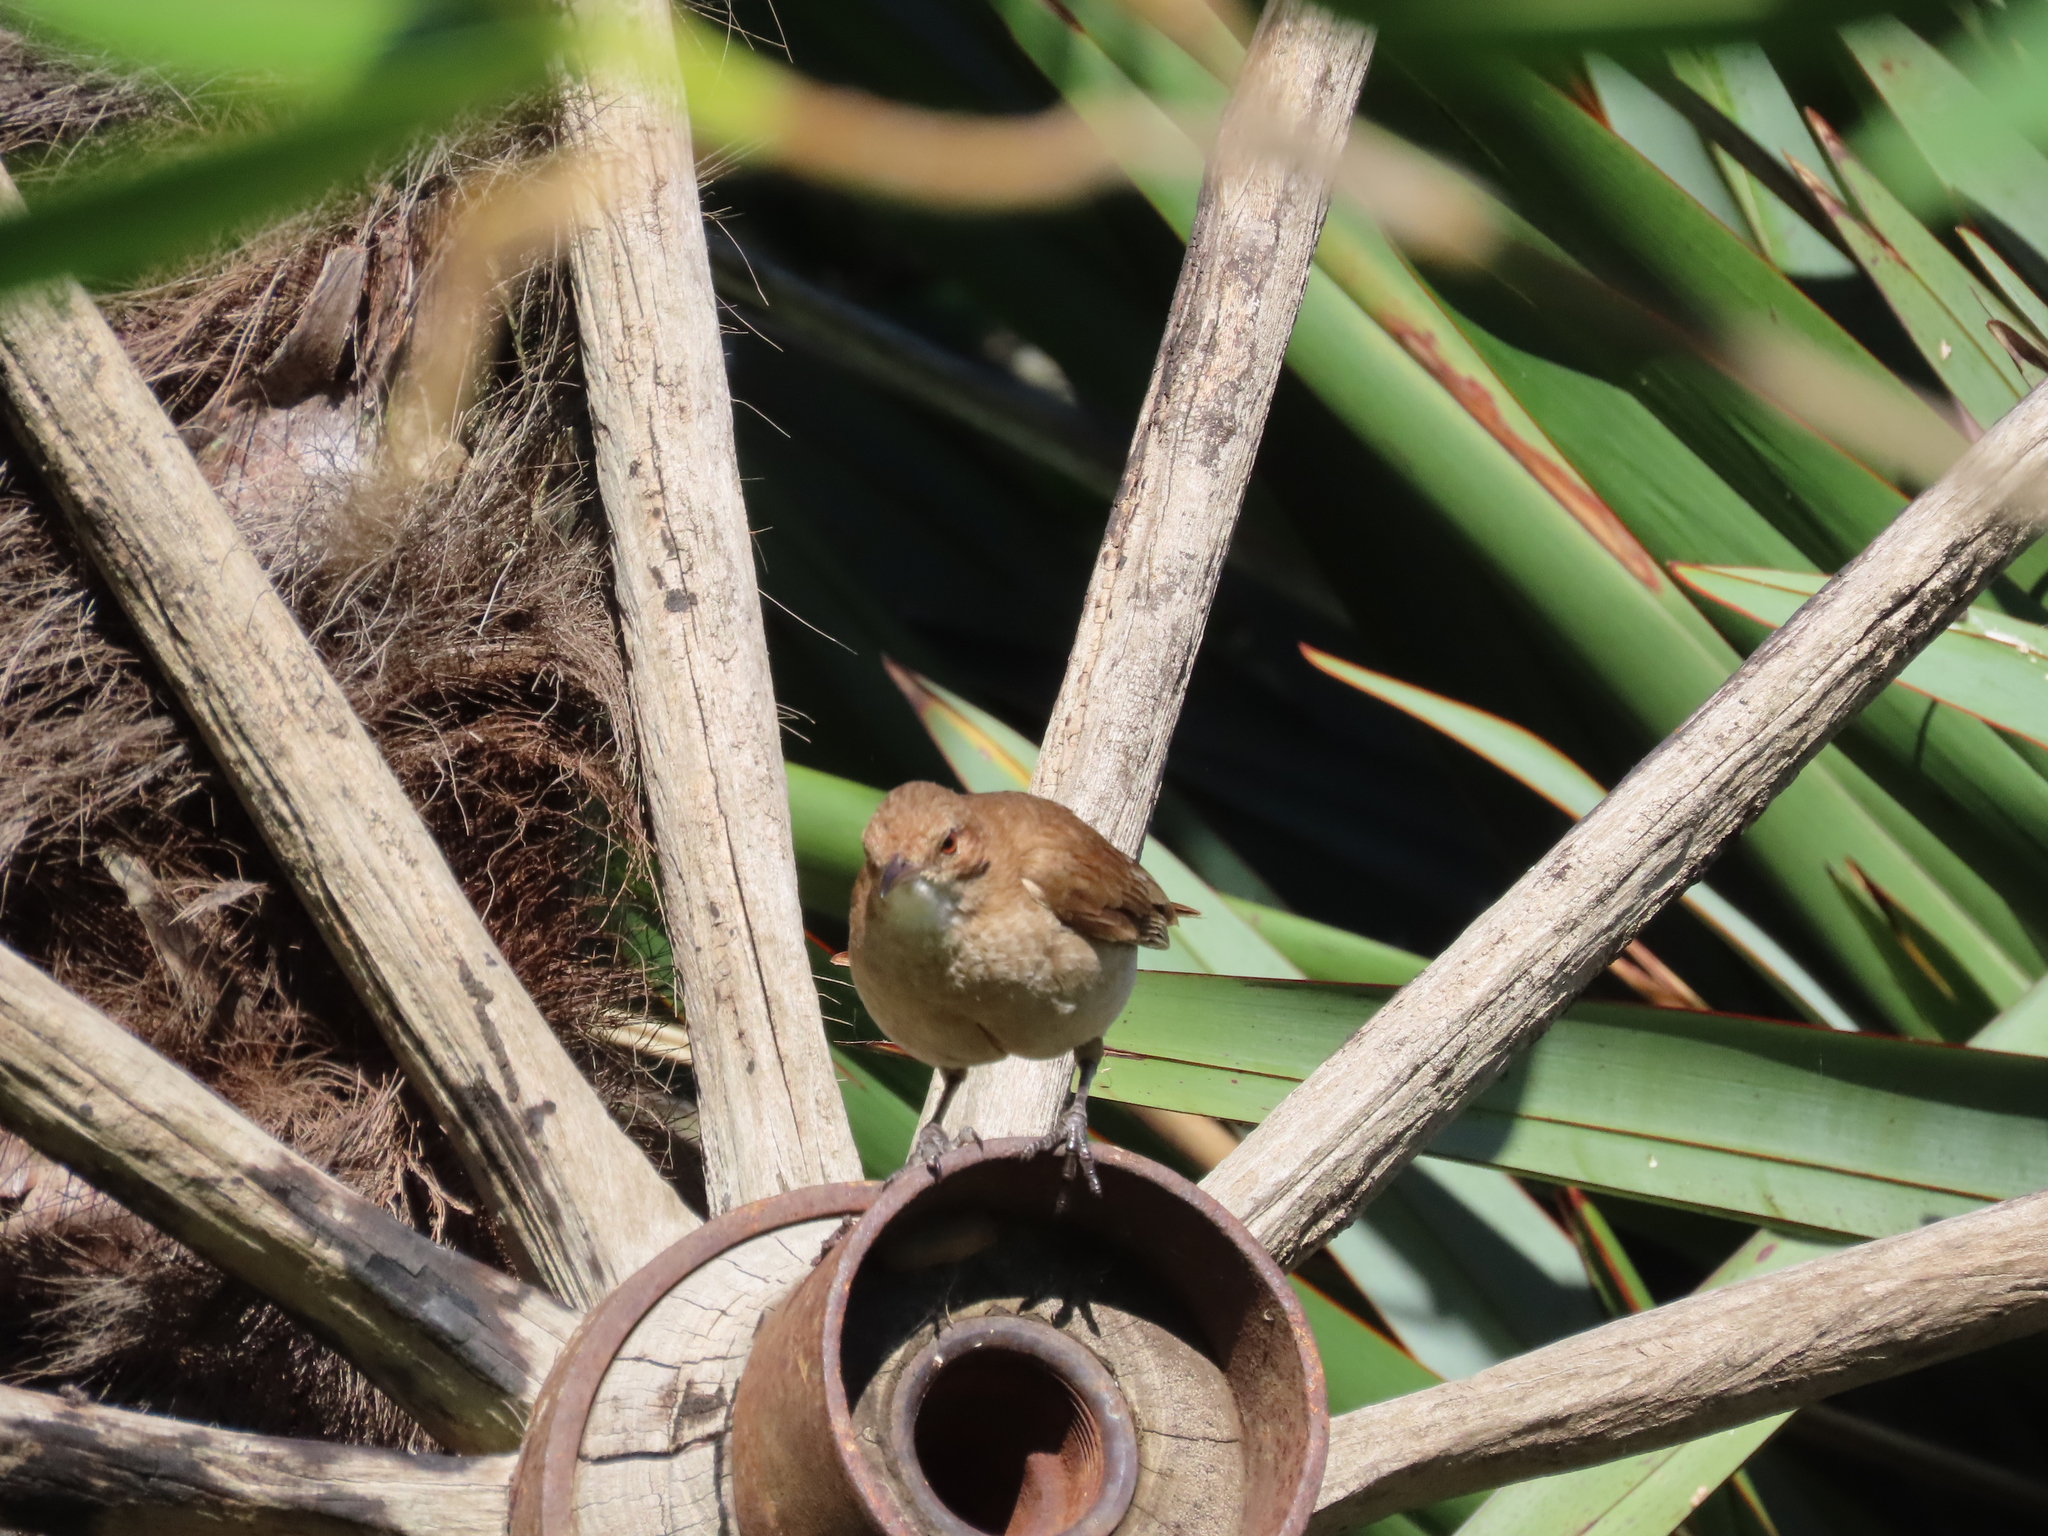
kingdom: Animalia
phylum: Chordata
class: Aves
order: Passeriformes
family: Furnariidae
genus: Furnarius
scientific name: Furnarius rufus
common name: Rufous hornero
